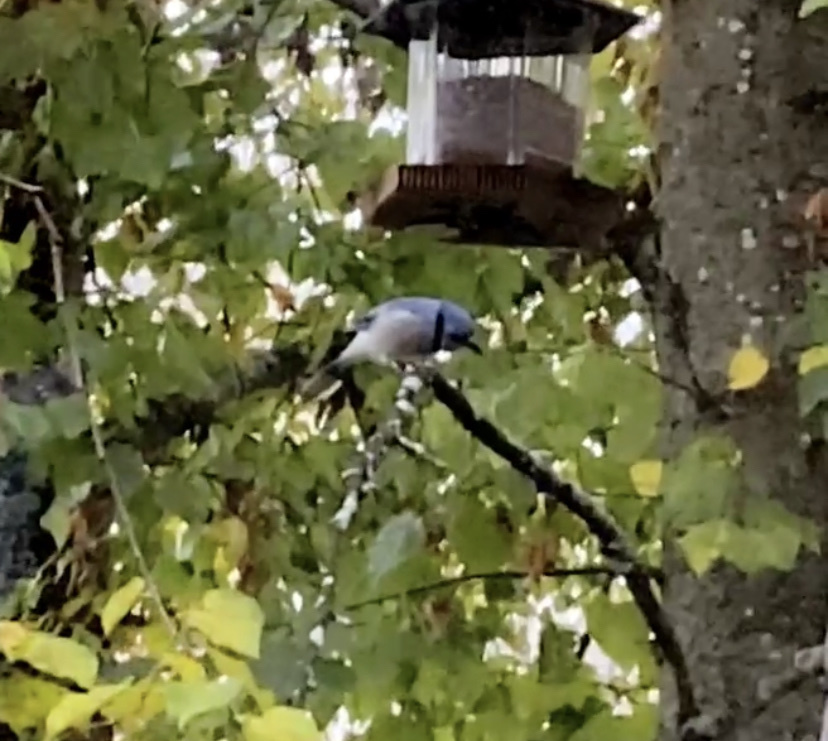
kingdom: Animalia
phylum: Chordata
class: Aves
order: Passeriformes
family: Corvidae
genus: Cyanocitta
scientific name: Cyanocitta cristata
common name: Blue jay
